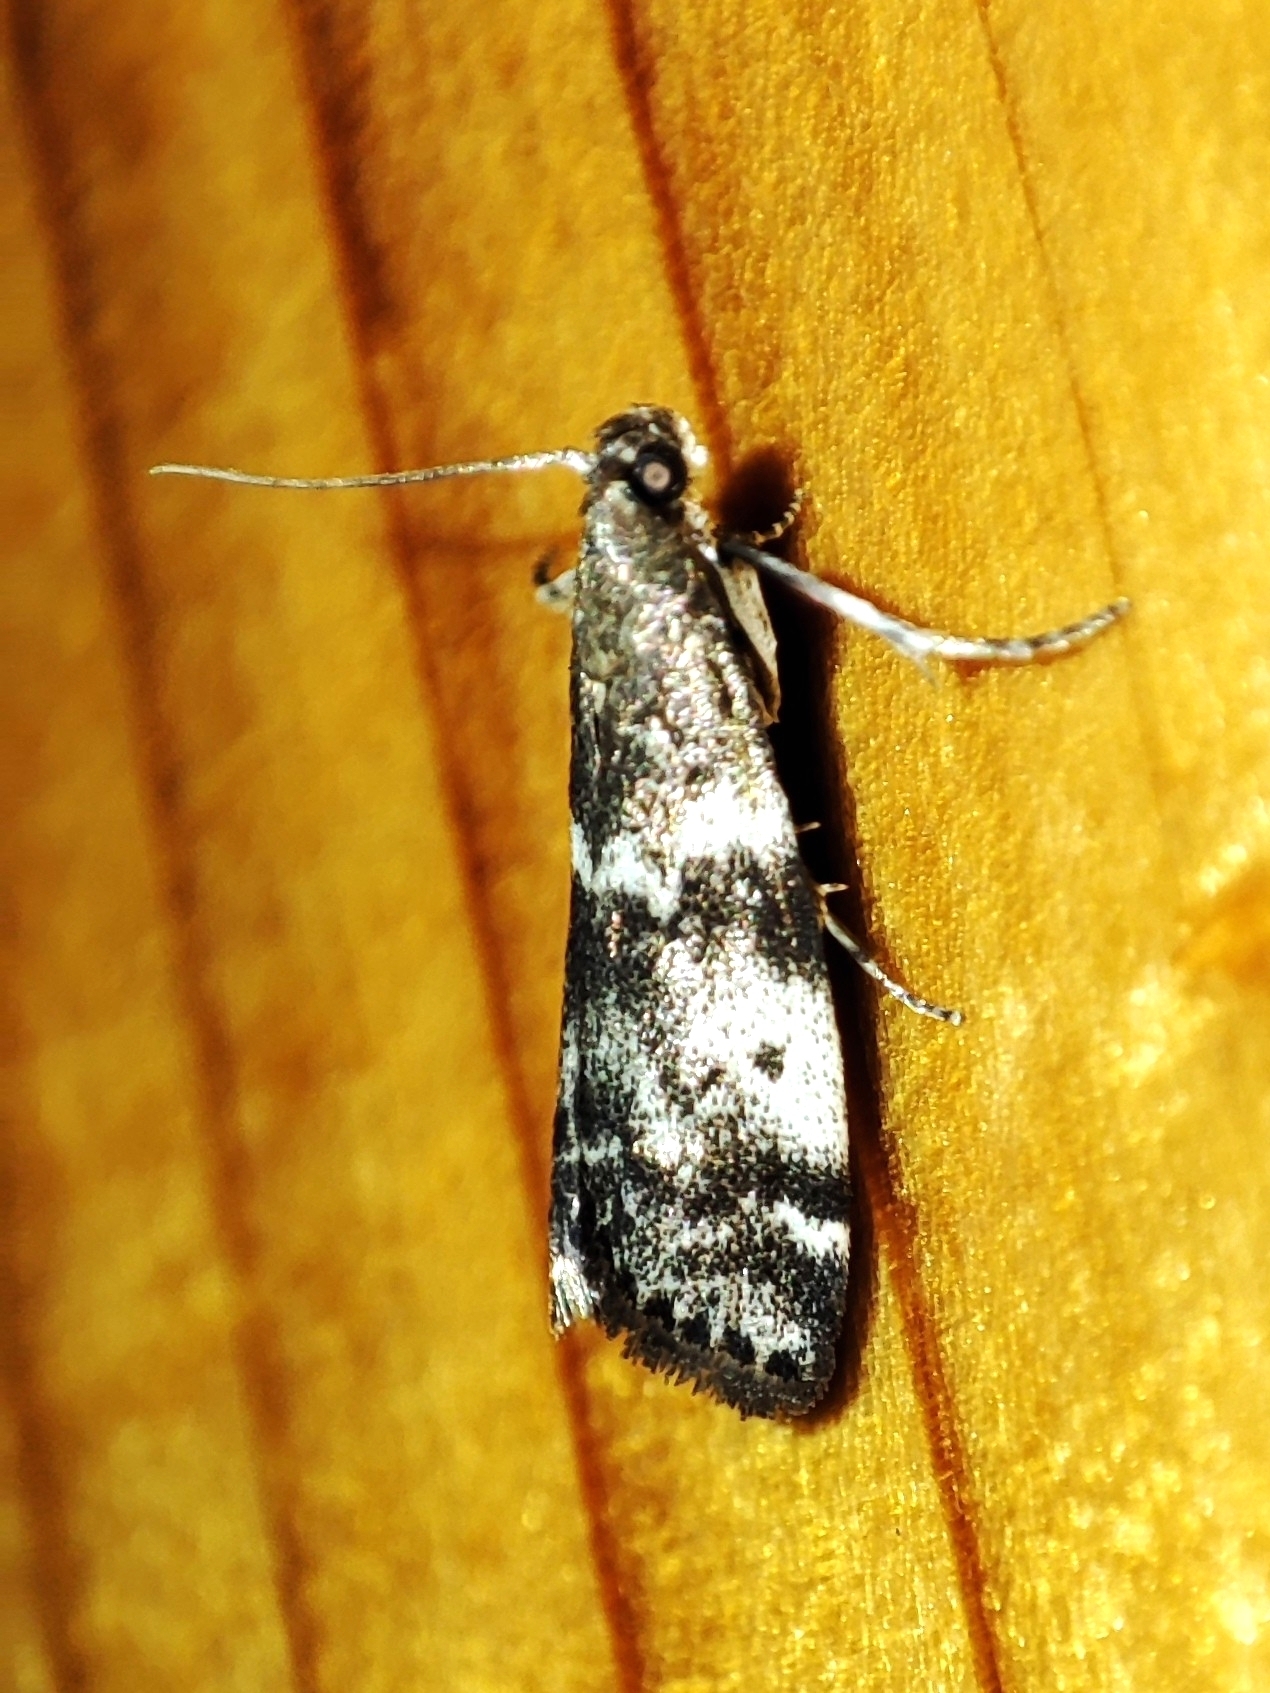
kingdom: Animalia
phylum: Arthropoda
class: Insecta
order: Lepidoptera
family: Pyralidae
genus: Assara
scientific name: Assara terebrella
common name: Dark spruce knot-horn
